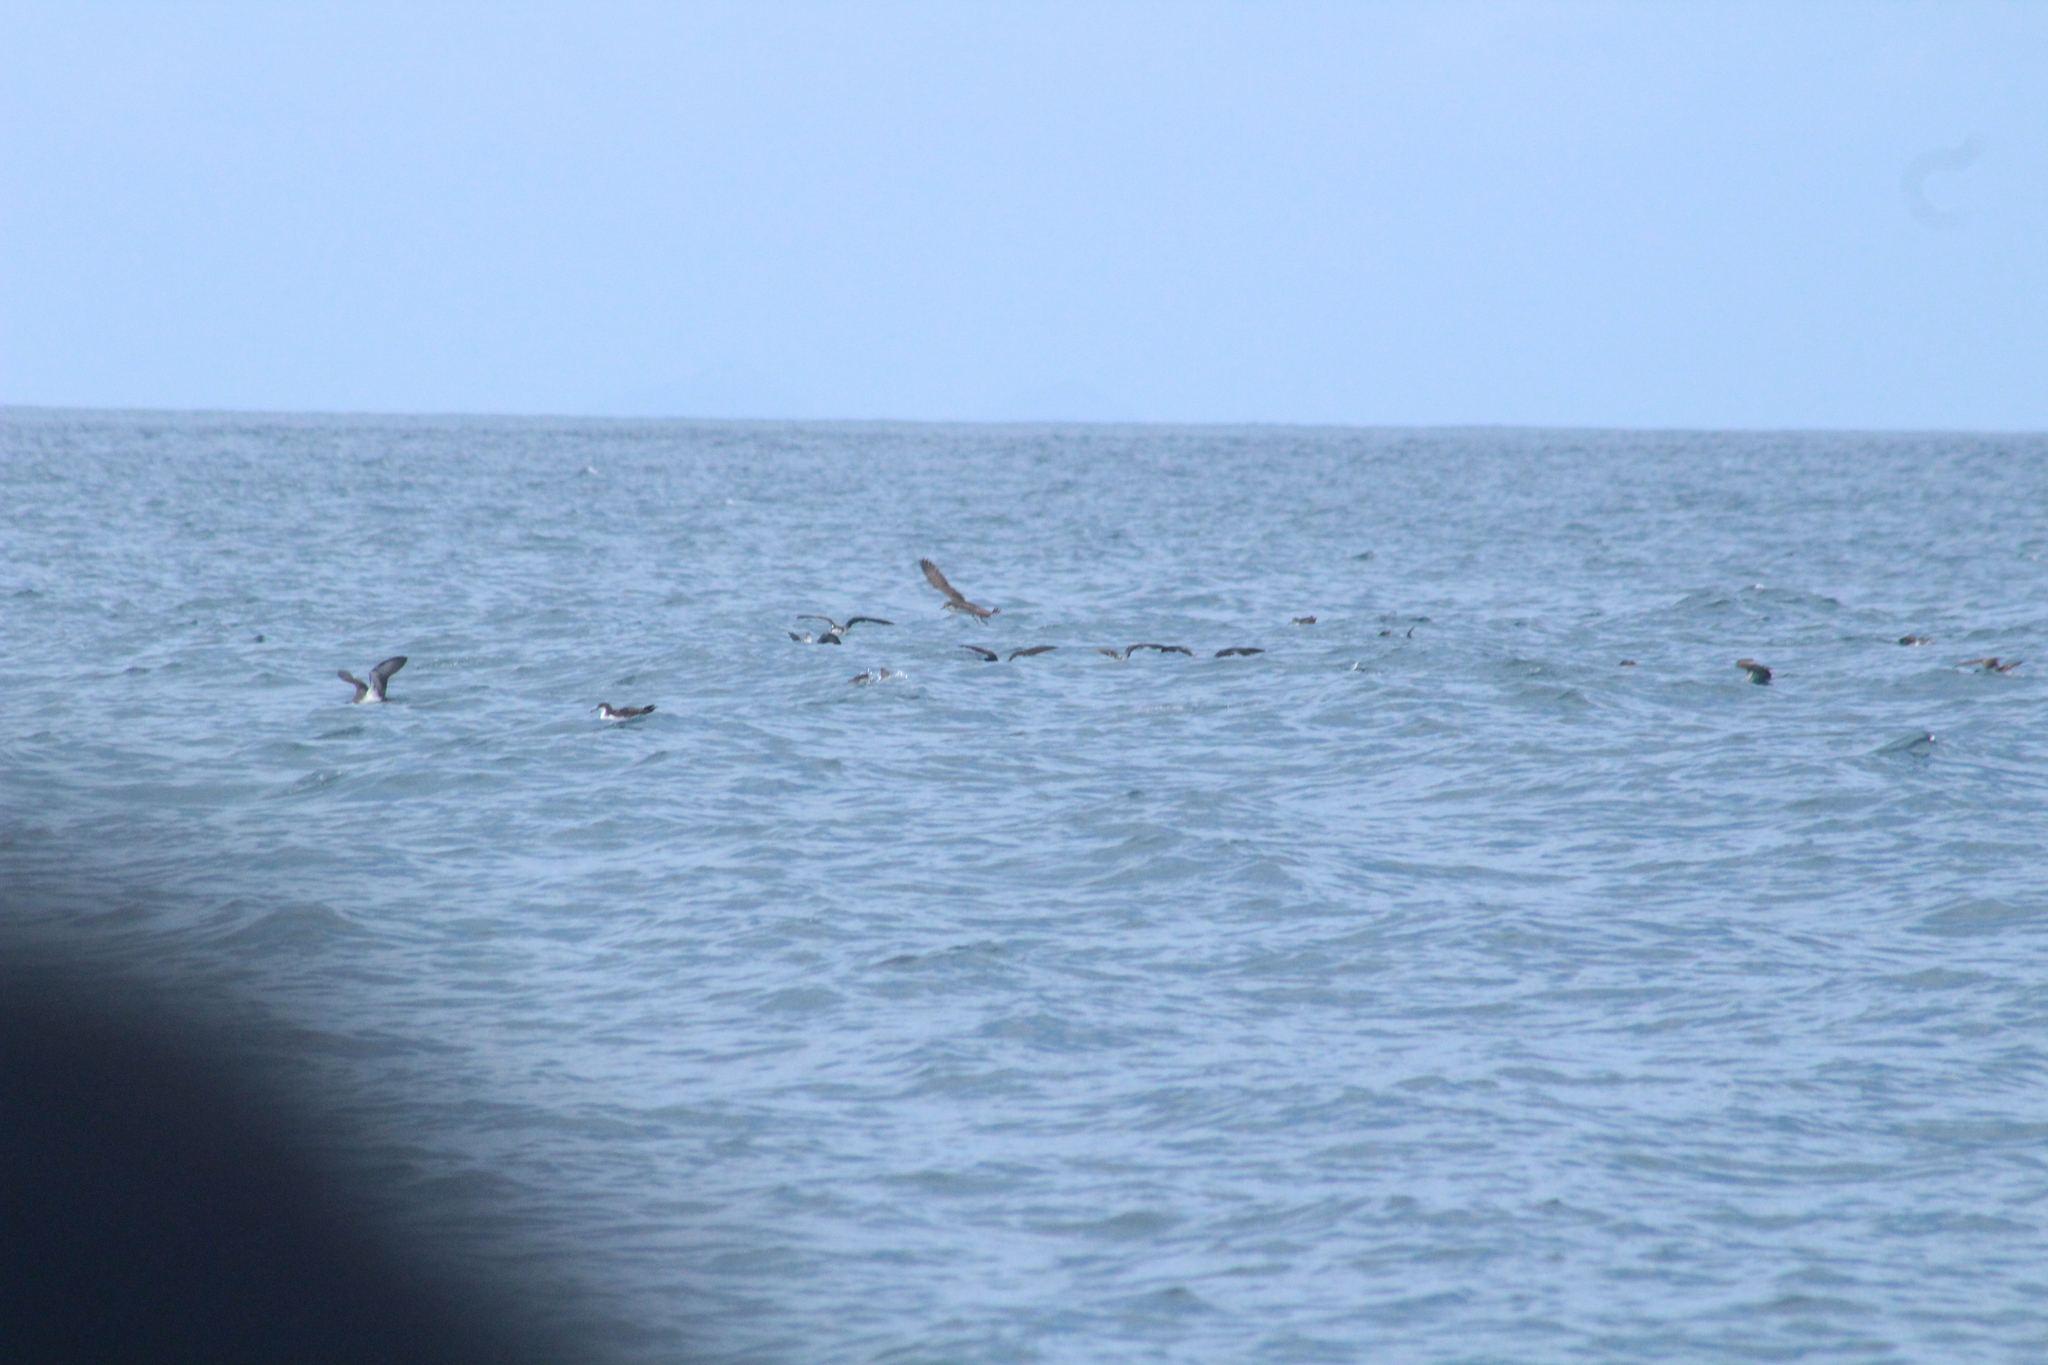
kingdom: Animalia
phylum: Chordata
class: Aves
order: Procellariiformes
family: Procellariidae
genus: Puffinus
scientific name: Puffinus subalaris
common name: Galapagos shearwater
